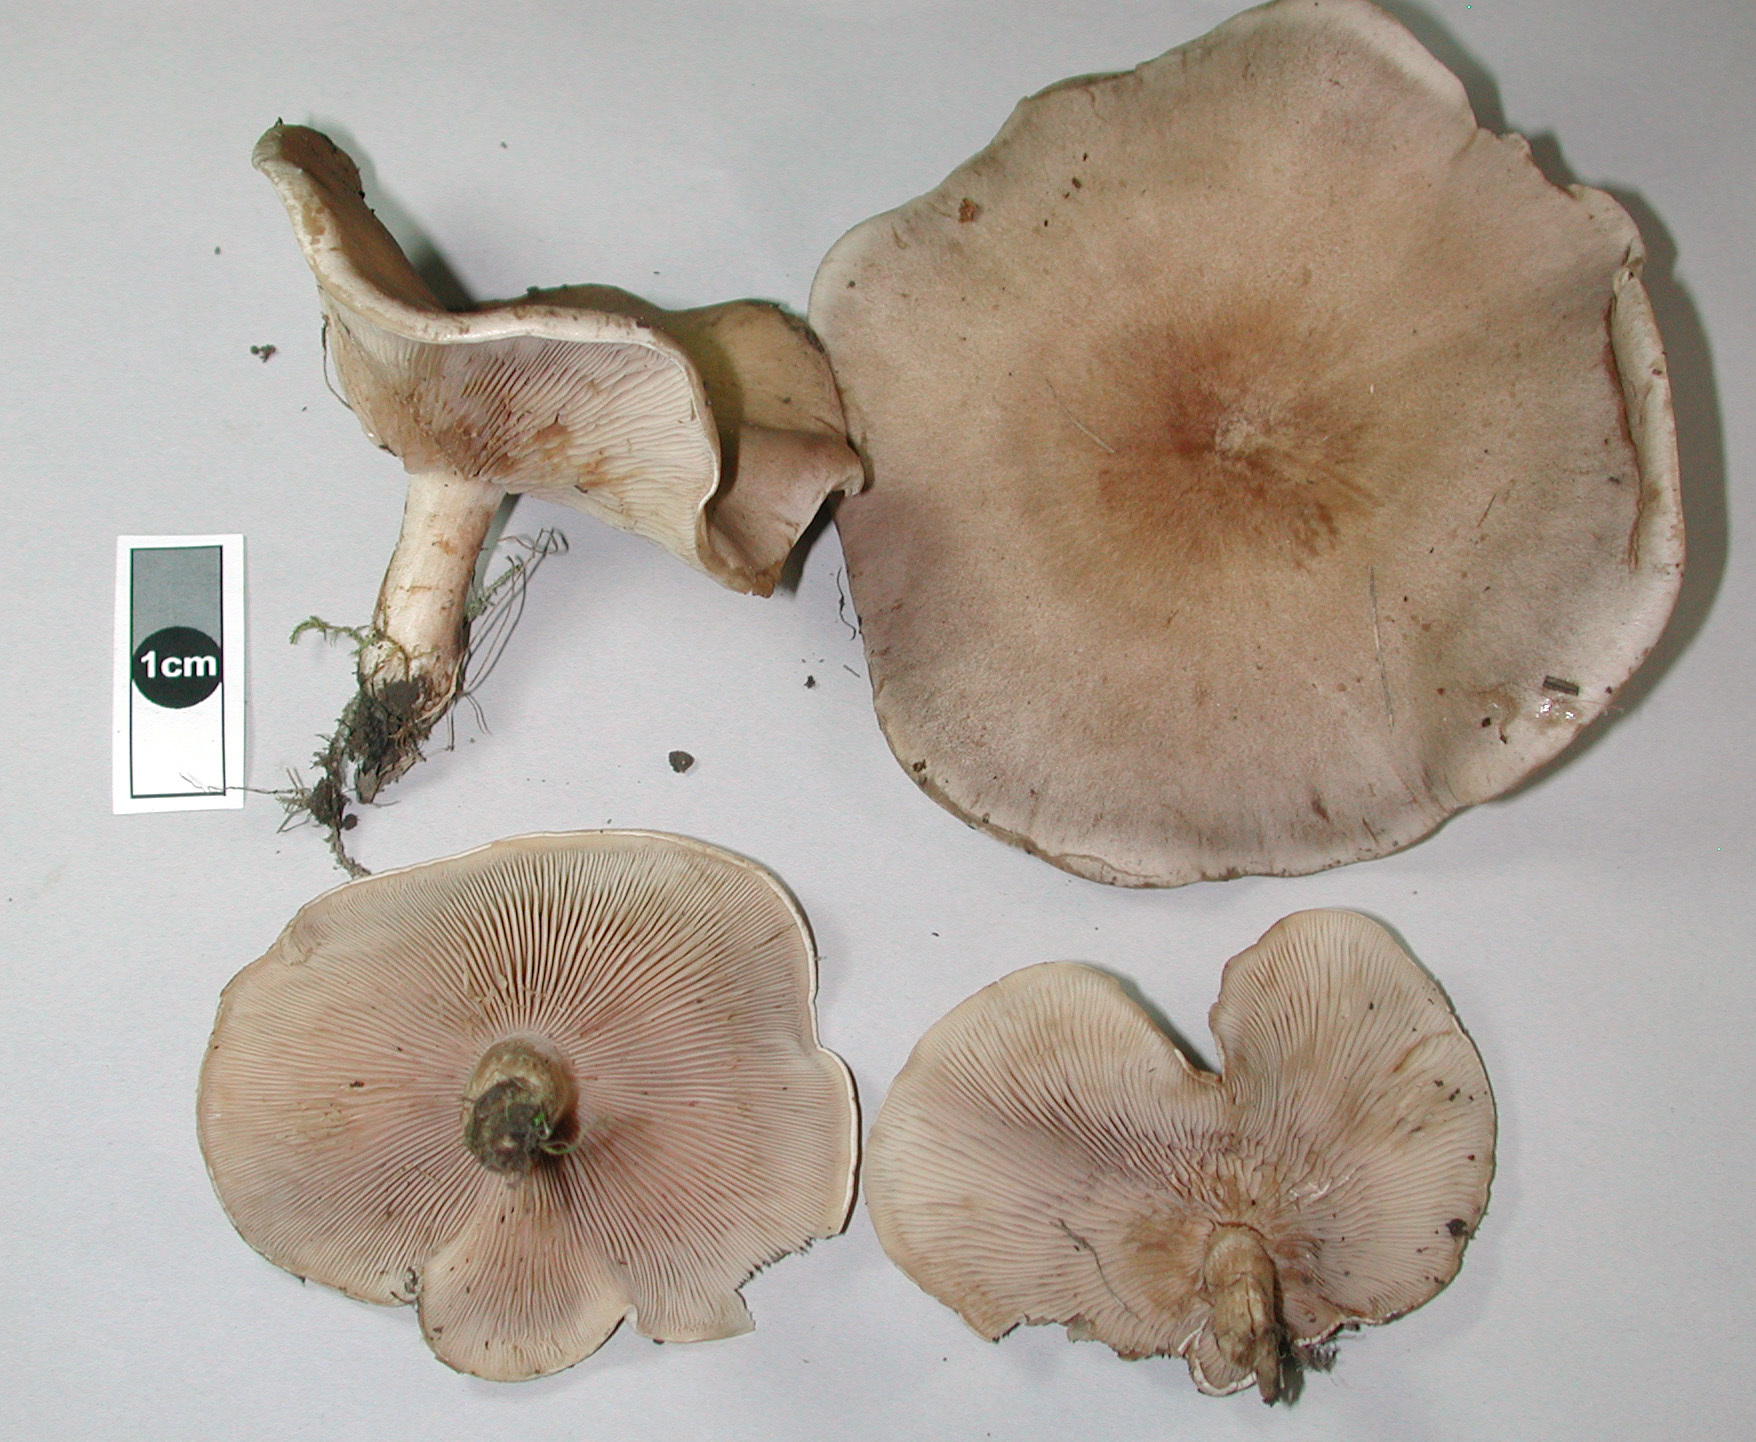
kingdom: Fungi
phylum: Basidiomycota
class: Agaricomycetes
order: Agaricales
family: Tricholomataceae
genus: Lepista
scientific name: Lepista luscina
